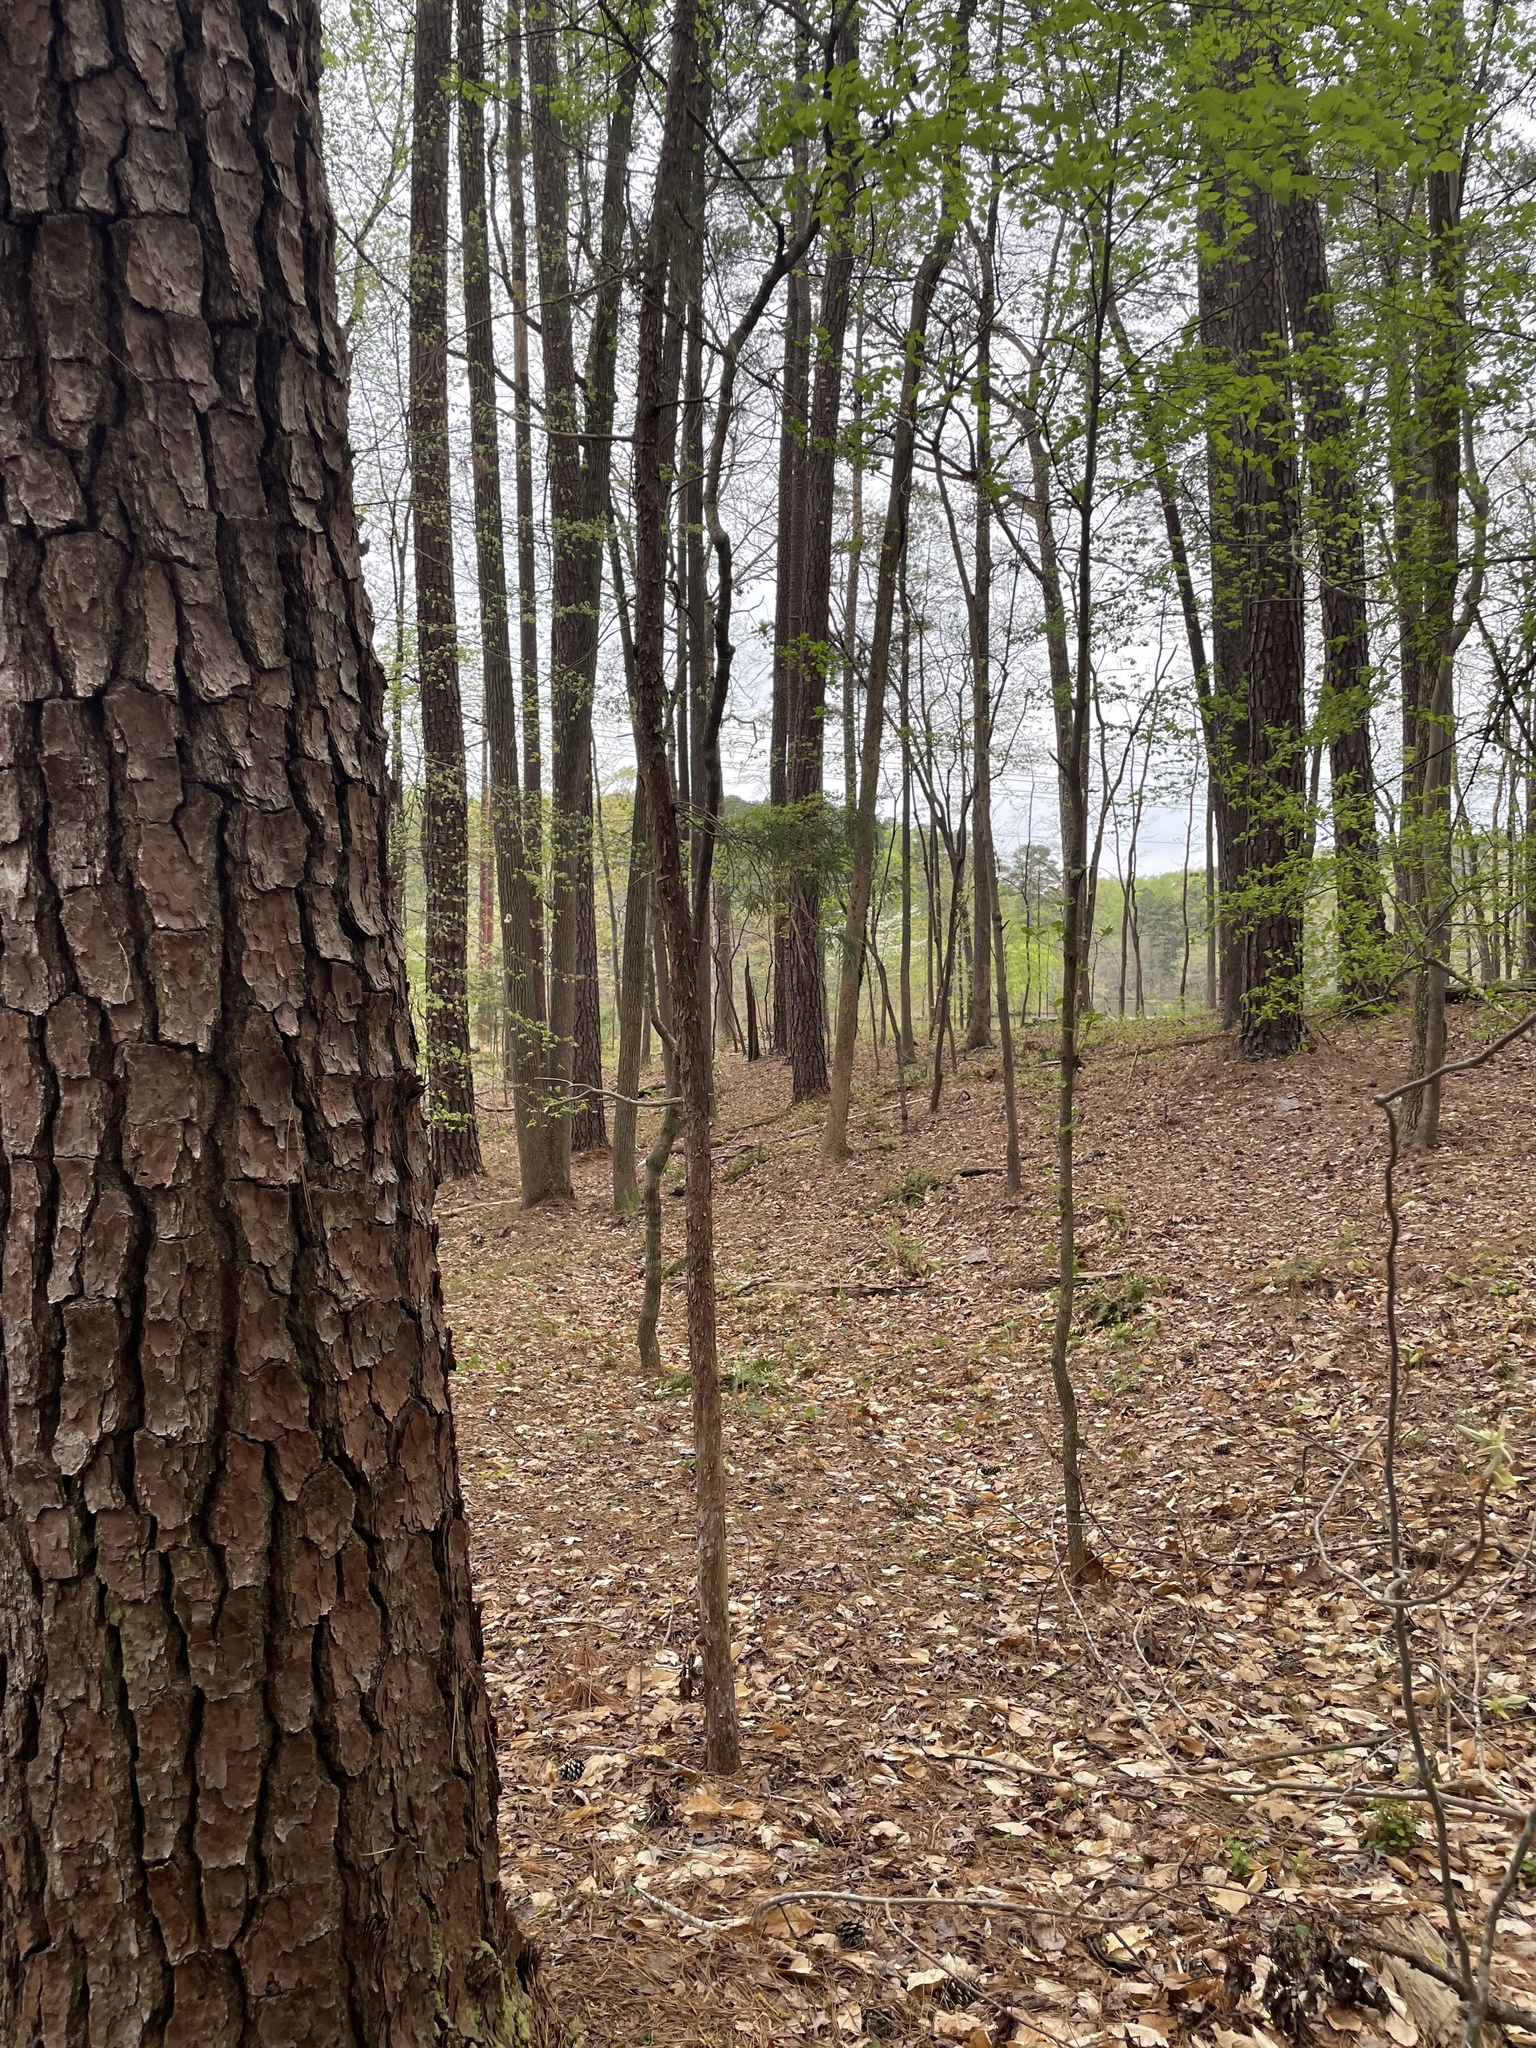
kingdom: Plantae
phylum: Tracheophyta
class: Pinopsida
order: Pinales
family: Cupressaceae
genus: Juniperus
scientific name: Juniperus virginiana
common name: Red juniper
